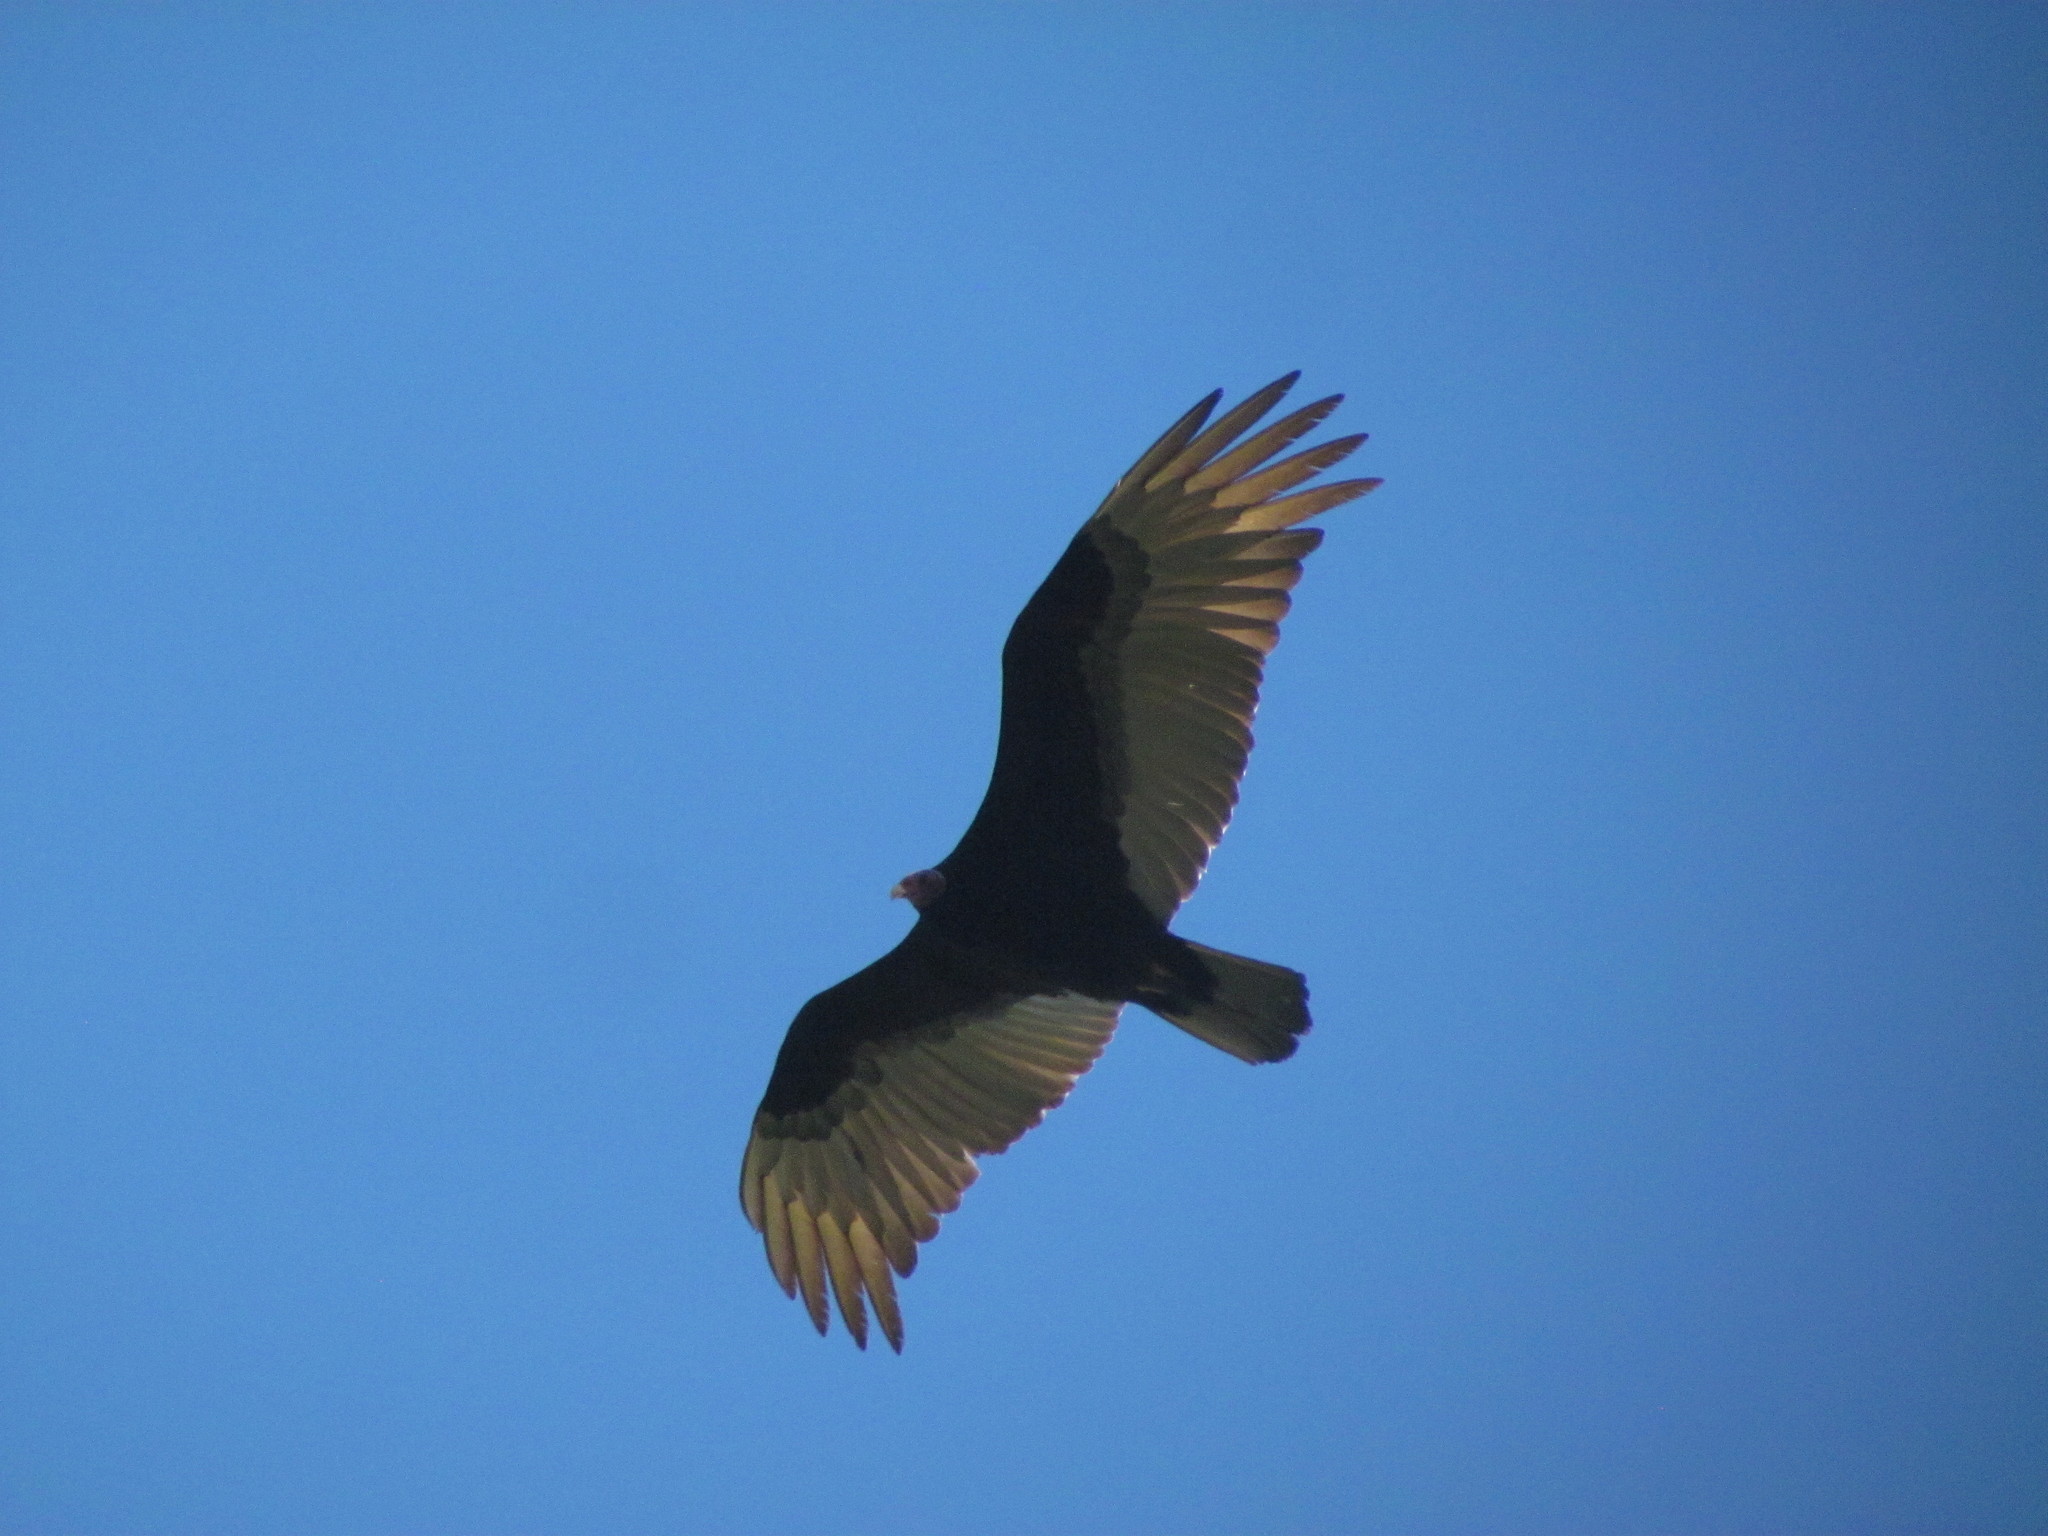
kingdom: Animalia
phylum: Chordata
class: Aves
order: Accipitriformes
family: Cathartidae
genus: Cathartes
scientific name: Cathartes aura
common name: Turkey vulture
